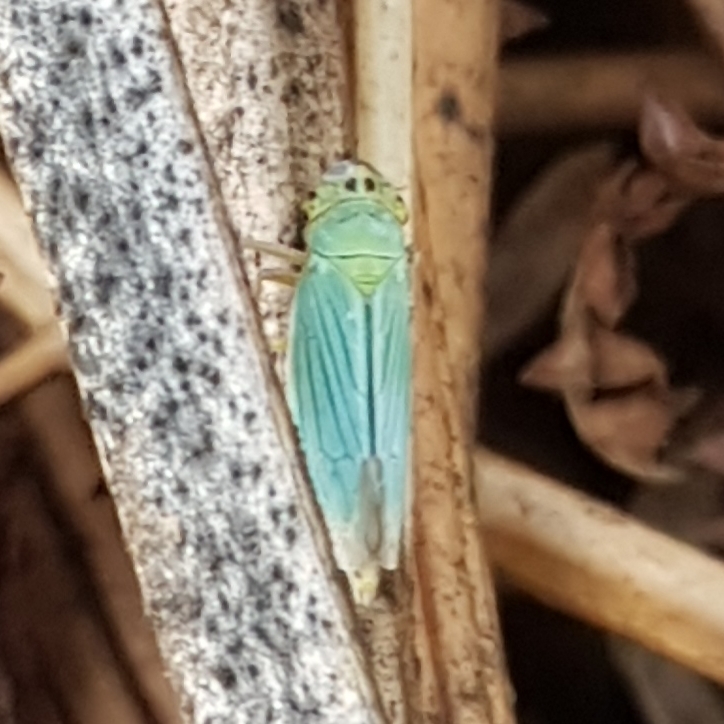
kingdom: Animalia
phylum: Arthropoda
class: Insecta
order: Hemiptera
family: Cicadellidae
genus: Cicadella
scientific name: Cicadella viridis
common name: Leafhopper
